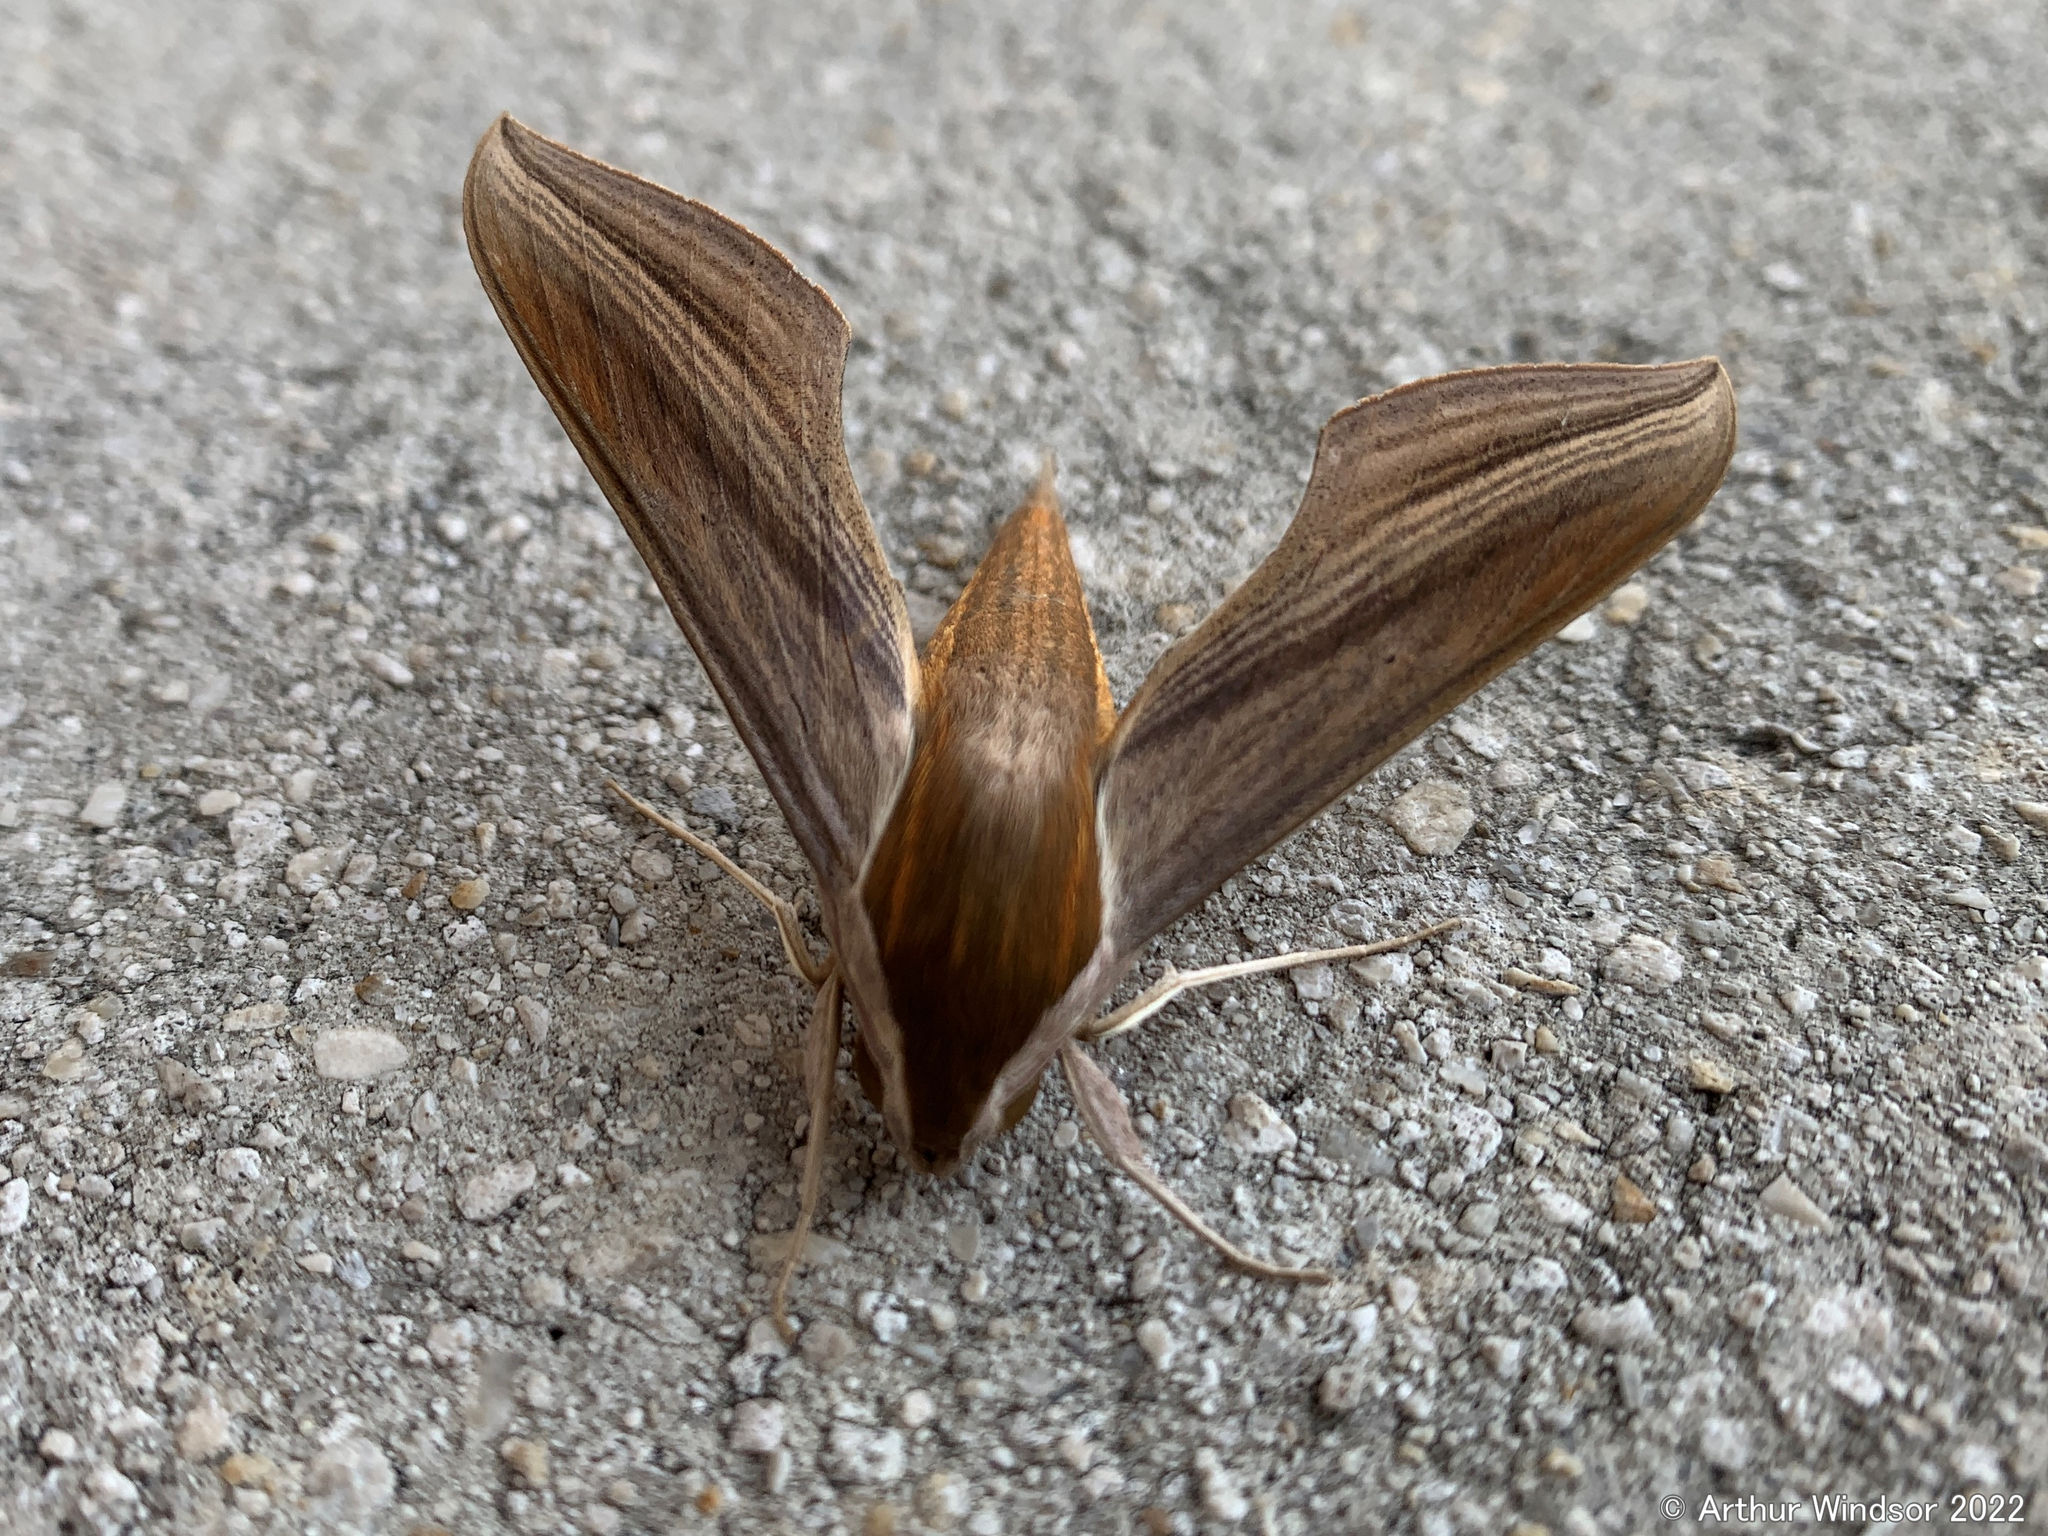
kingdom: Animalia
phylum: Arthropoda
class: Insecta
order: Lepidoptera
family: Sphingidae
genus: Xylophanes
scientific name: Xylophanes tersa
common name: Tersa sphinx
